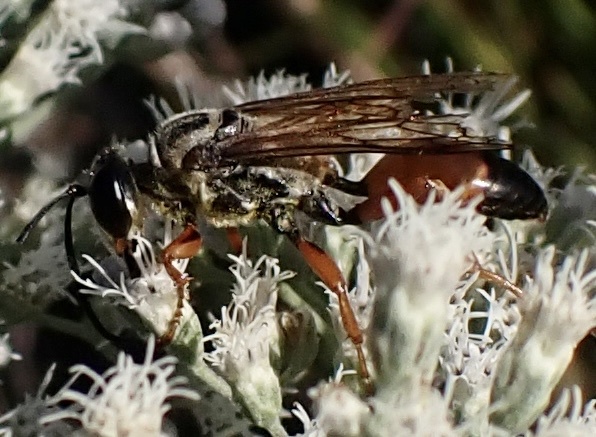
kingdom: Animalia
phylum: Arthropoda
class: Insecta
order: Hymenoptera
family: Sphecidae
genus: Sphex
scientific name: Sphex ichneumoneus
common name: Great golden digger wasp
